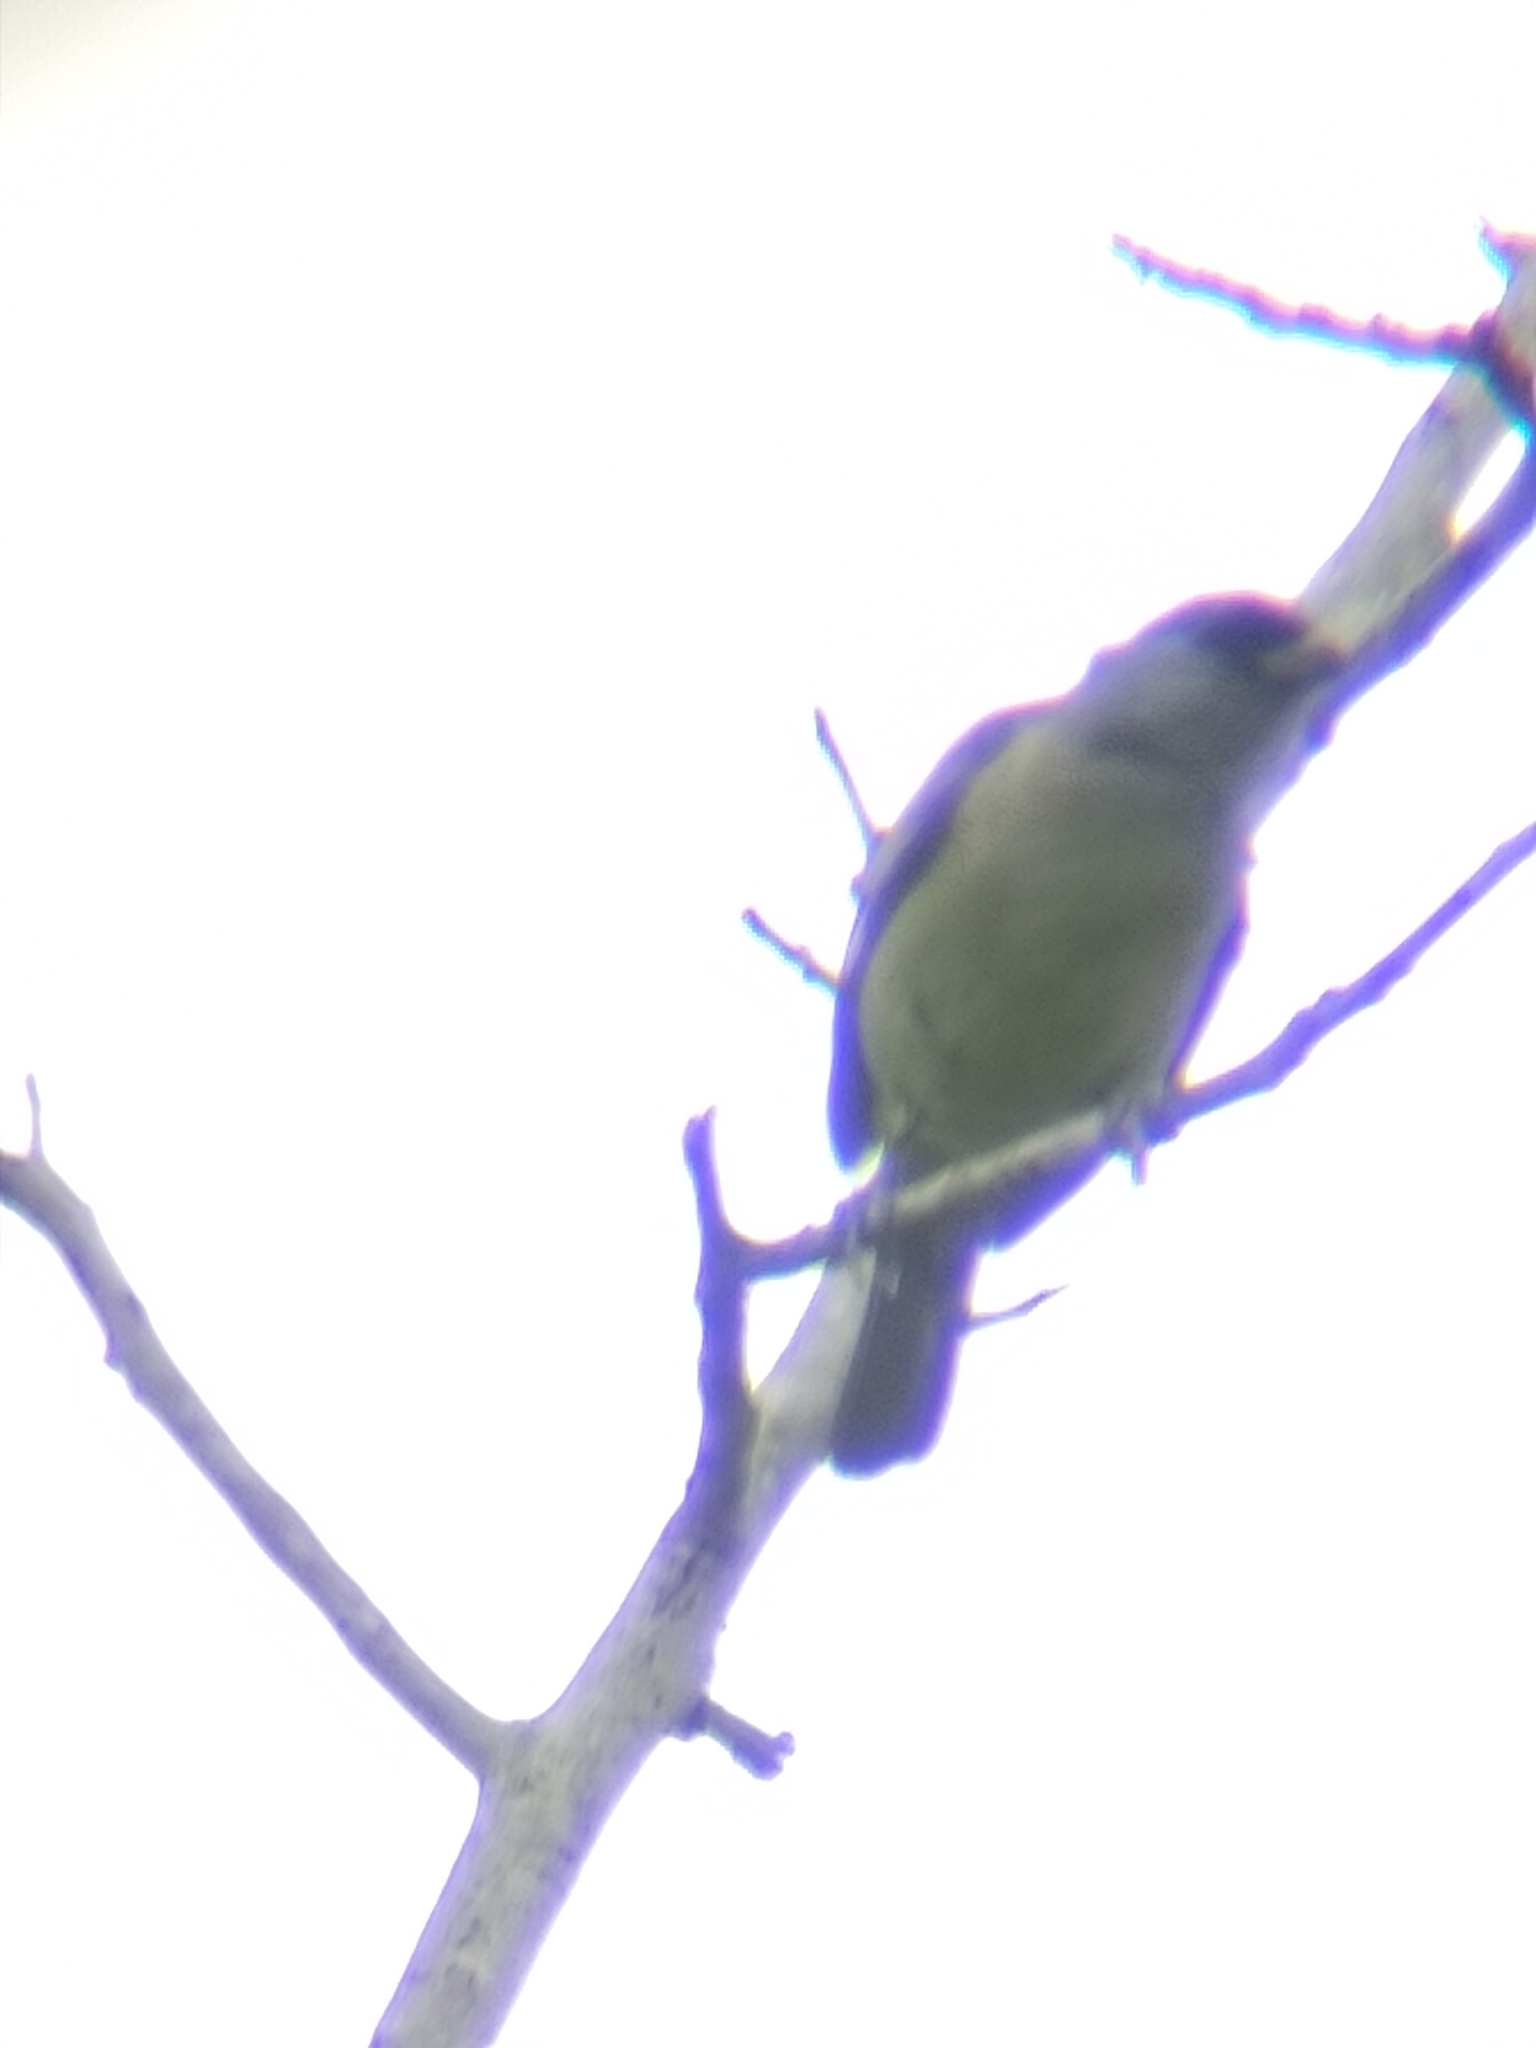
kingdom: Animalia
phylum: Chordata
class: Aves
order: Passeriformes
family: Thraupidae
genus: Thraupis
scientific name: Thraupis abbas
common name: Yellow-winged tanager
